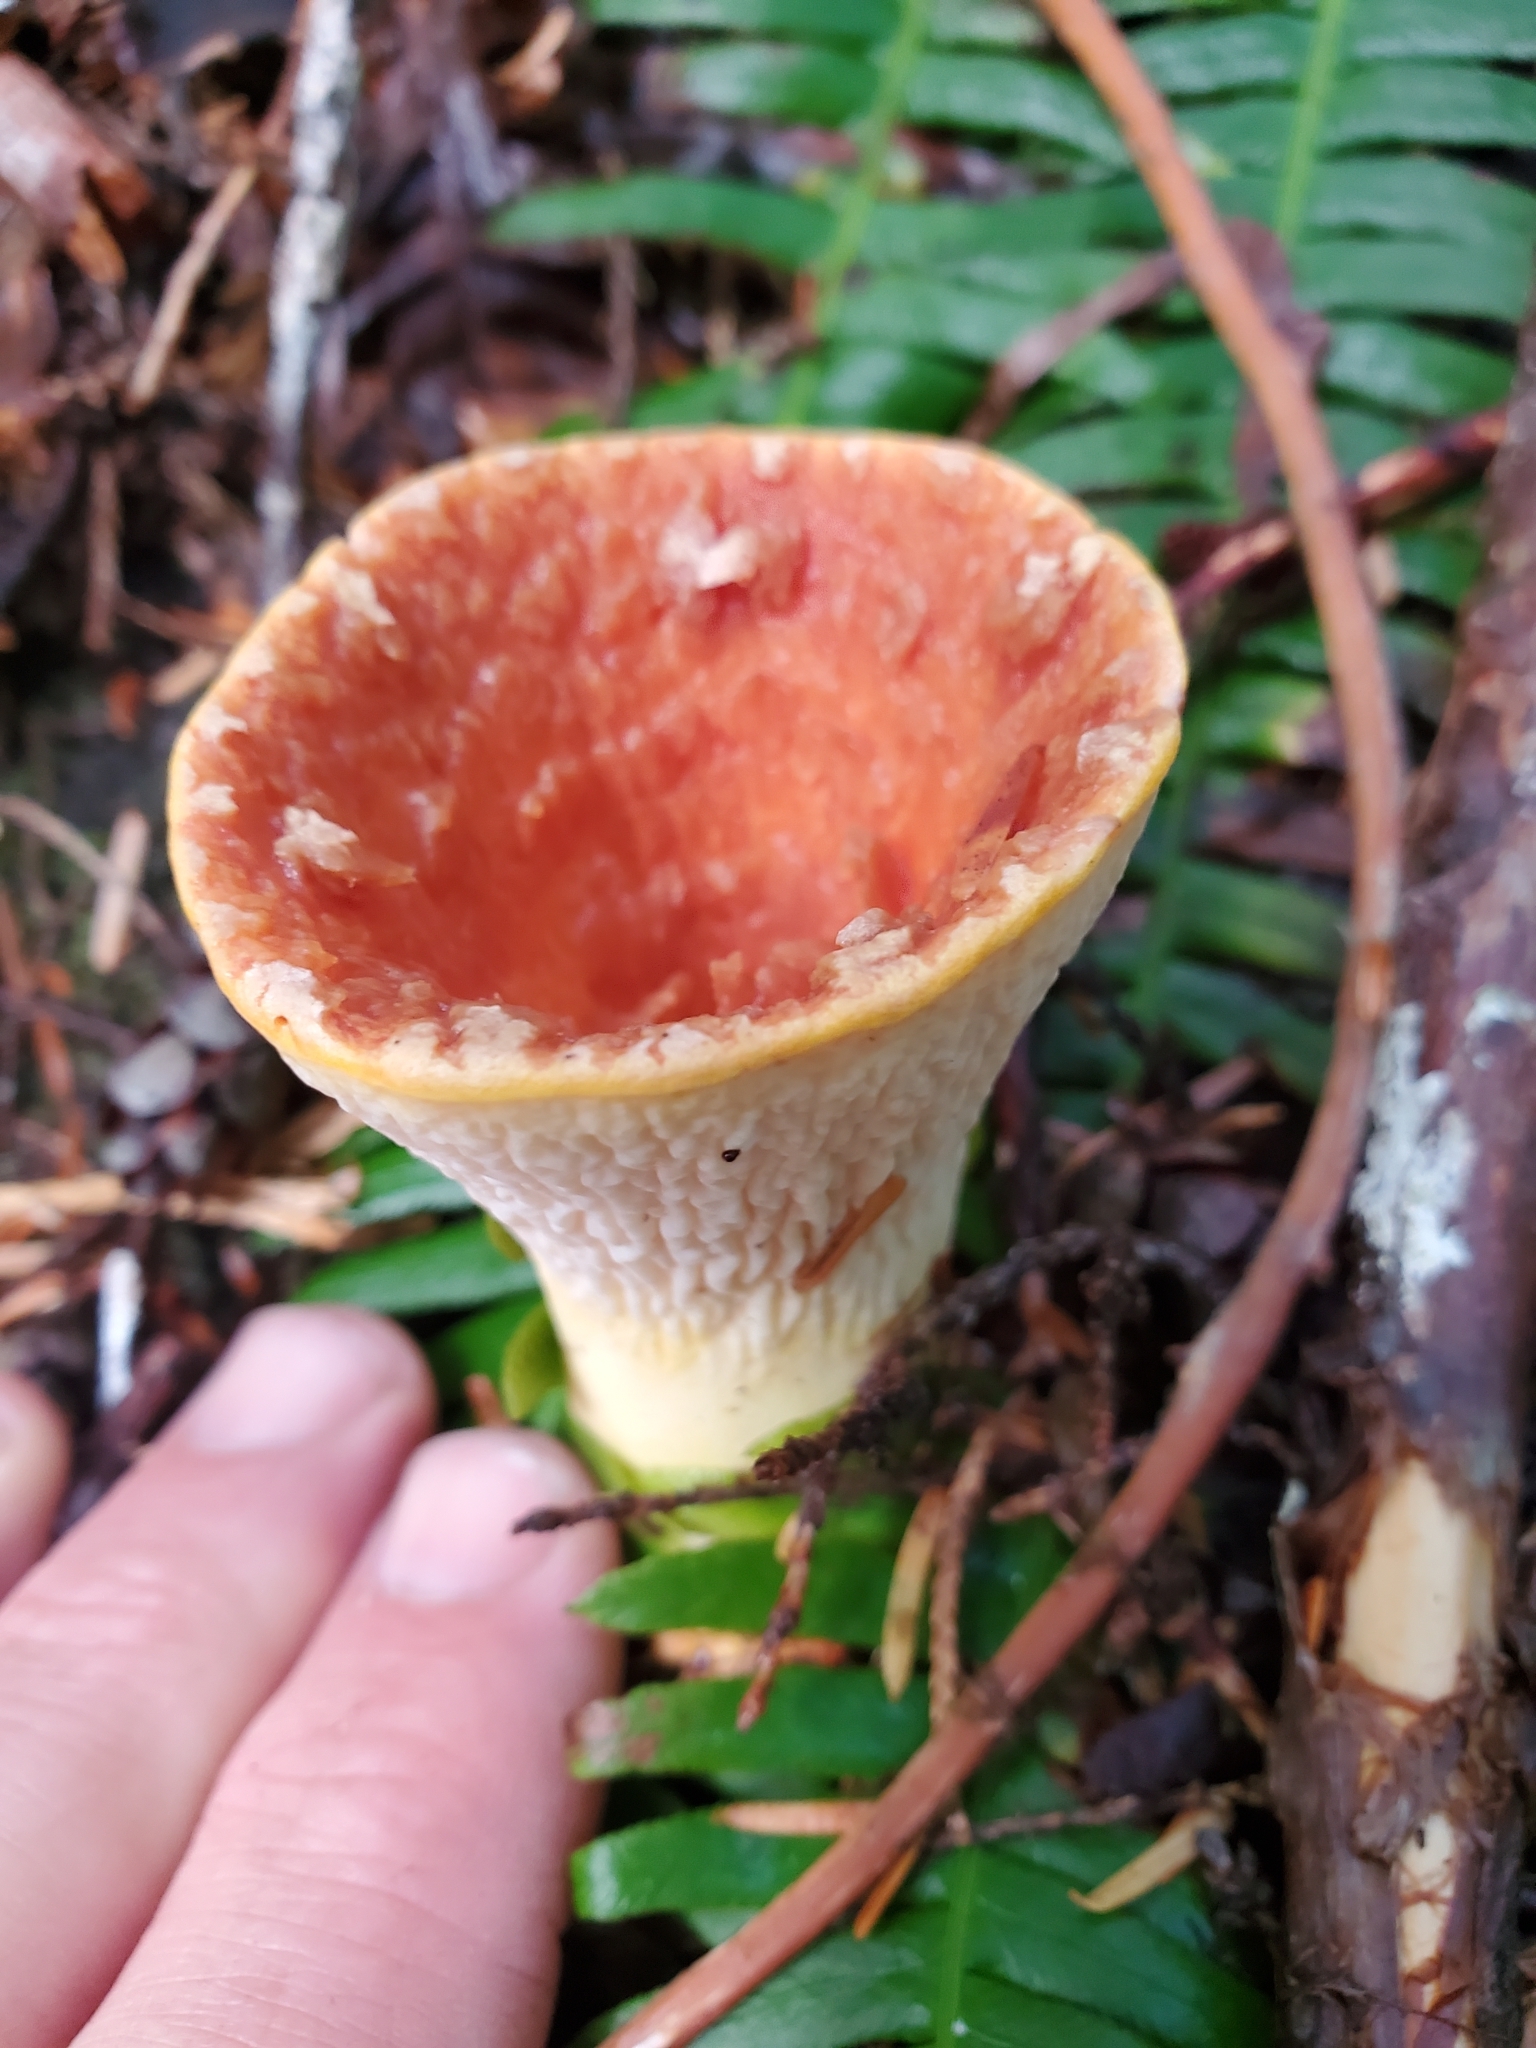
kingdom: Fungi
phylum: Basidiomycota
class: Agaricomycetes
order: Gomphales
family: Gomphaceae
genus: Turbinellus
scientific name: Turbinellus floccosus
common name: Scaly chanterelle
